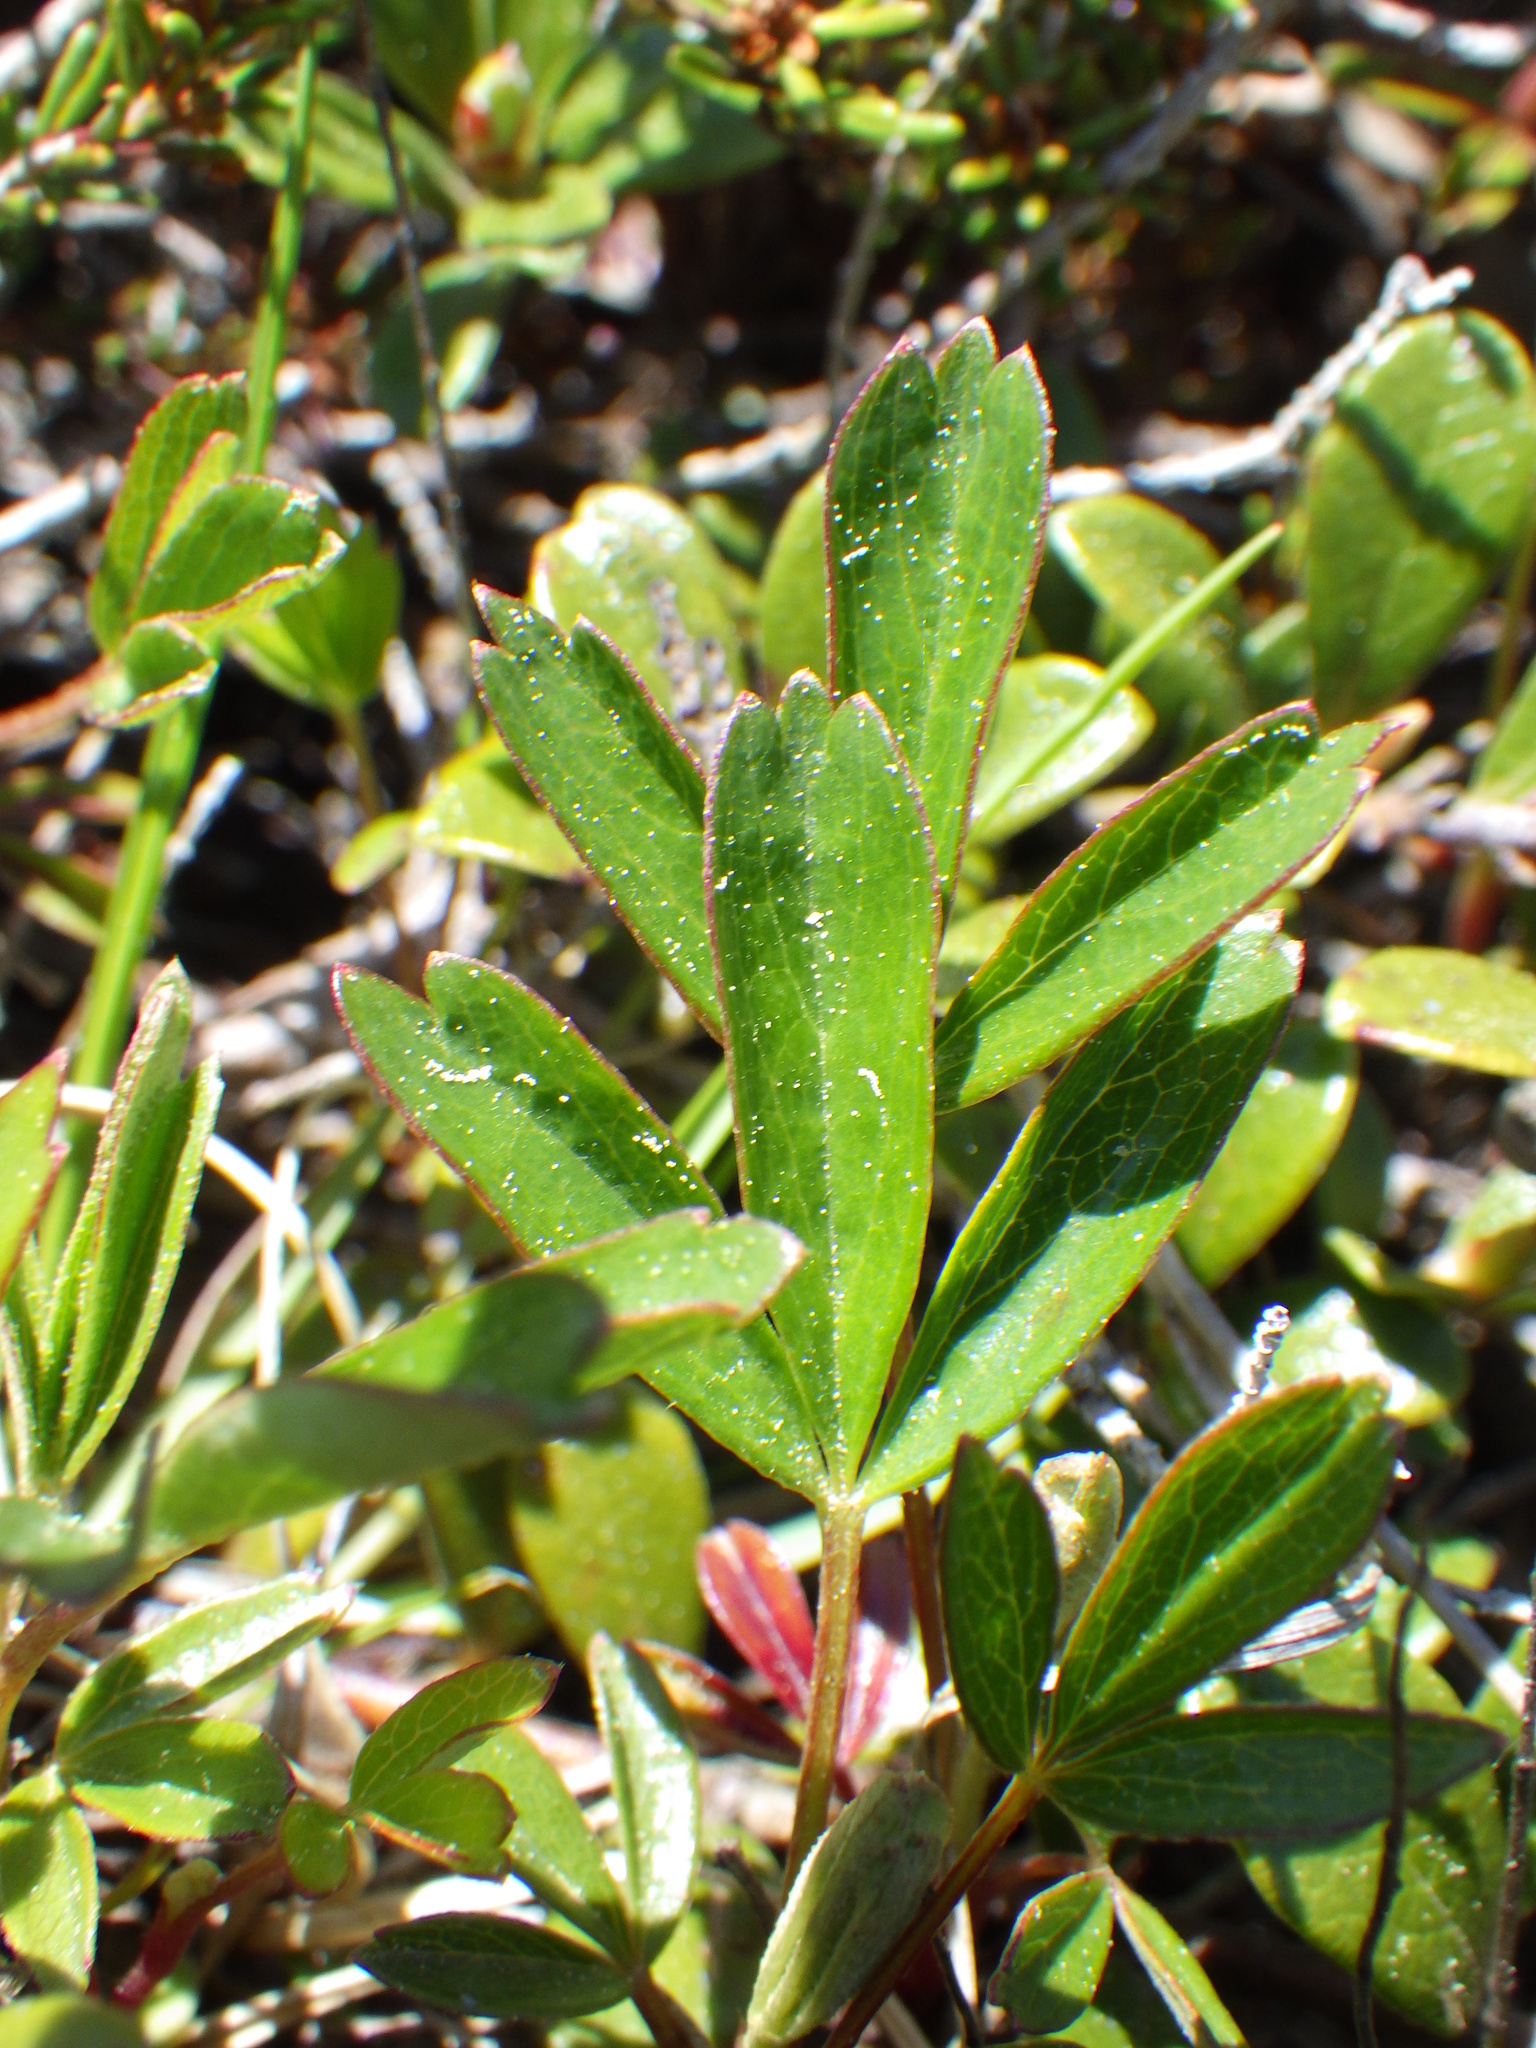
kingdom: Plantae
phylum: Tracheophyta
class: Magnoliopsida
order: Rosales
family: Rosaceae
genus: Sibbaldia
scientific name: Sibbaldia tridentata
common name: Three-toothed cinquefoil
